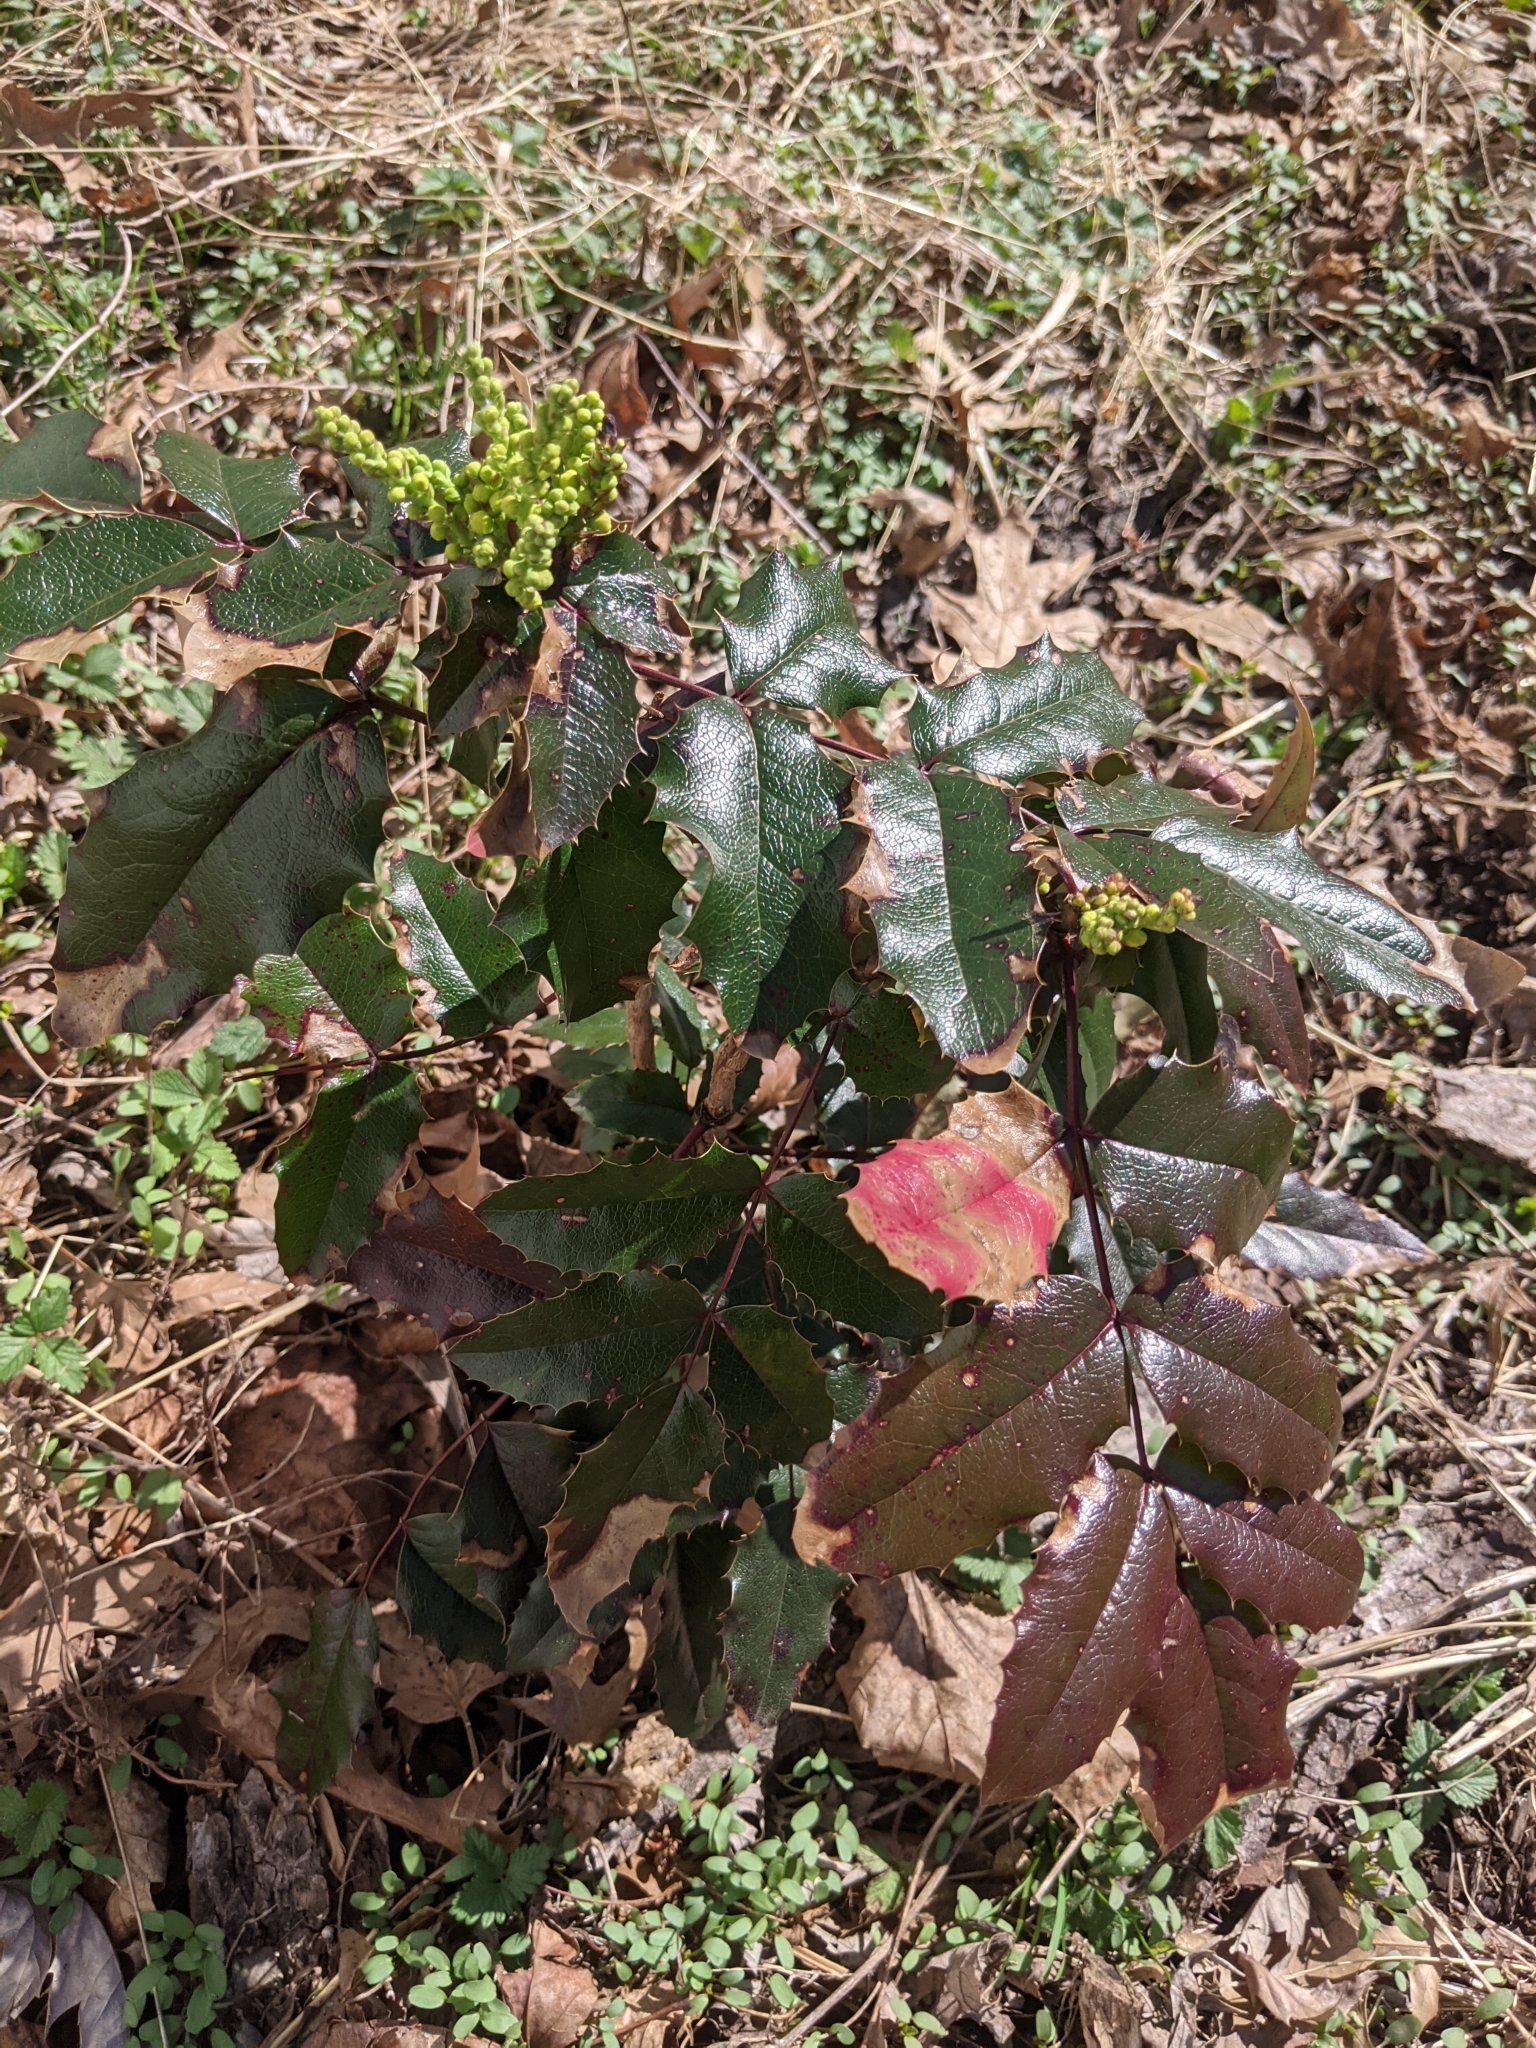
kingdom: Plantae
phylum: Tracheophyta
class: Magnoliopsida
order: Ranunculales
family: Berberidaceae
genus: Mahonia
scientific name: Mahonia aquifolium
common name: Oregon-grape
